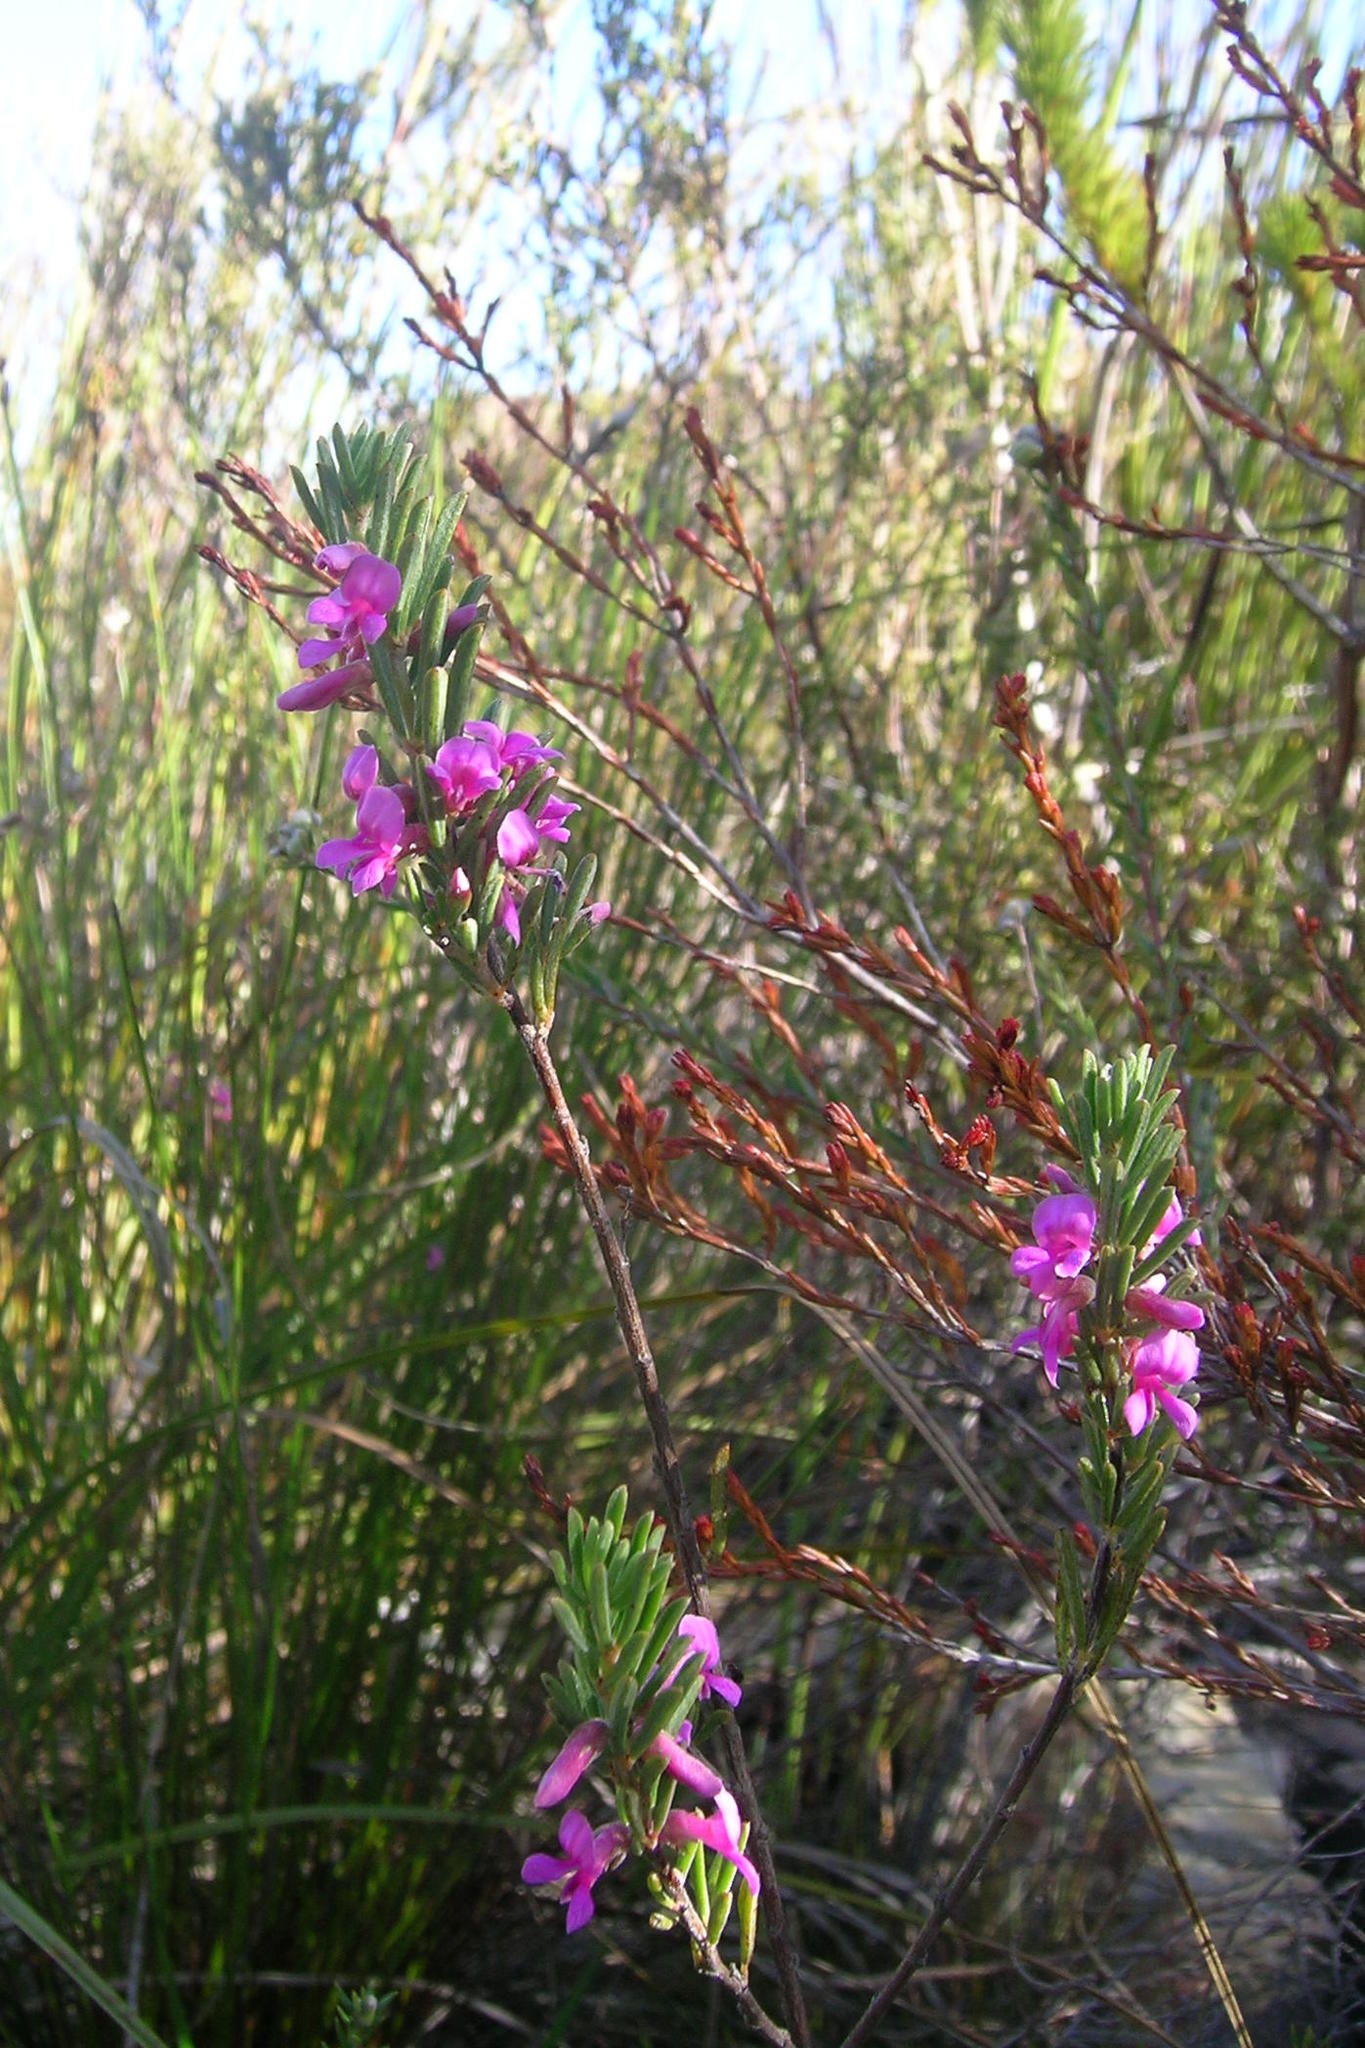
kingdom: Plantae
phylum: Tracheophyta
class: Magnoliopsida
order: Fabales
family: Fabaceae
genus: Indigofera
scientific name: Indigofera pappei
